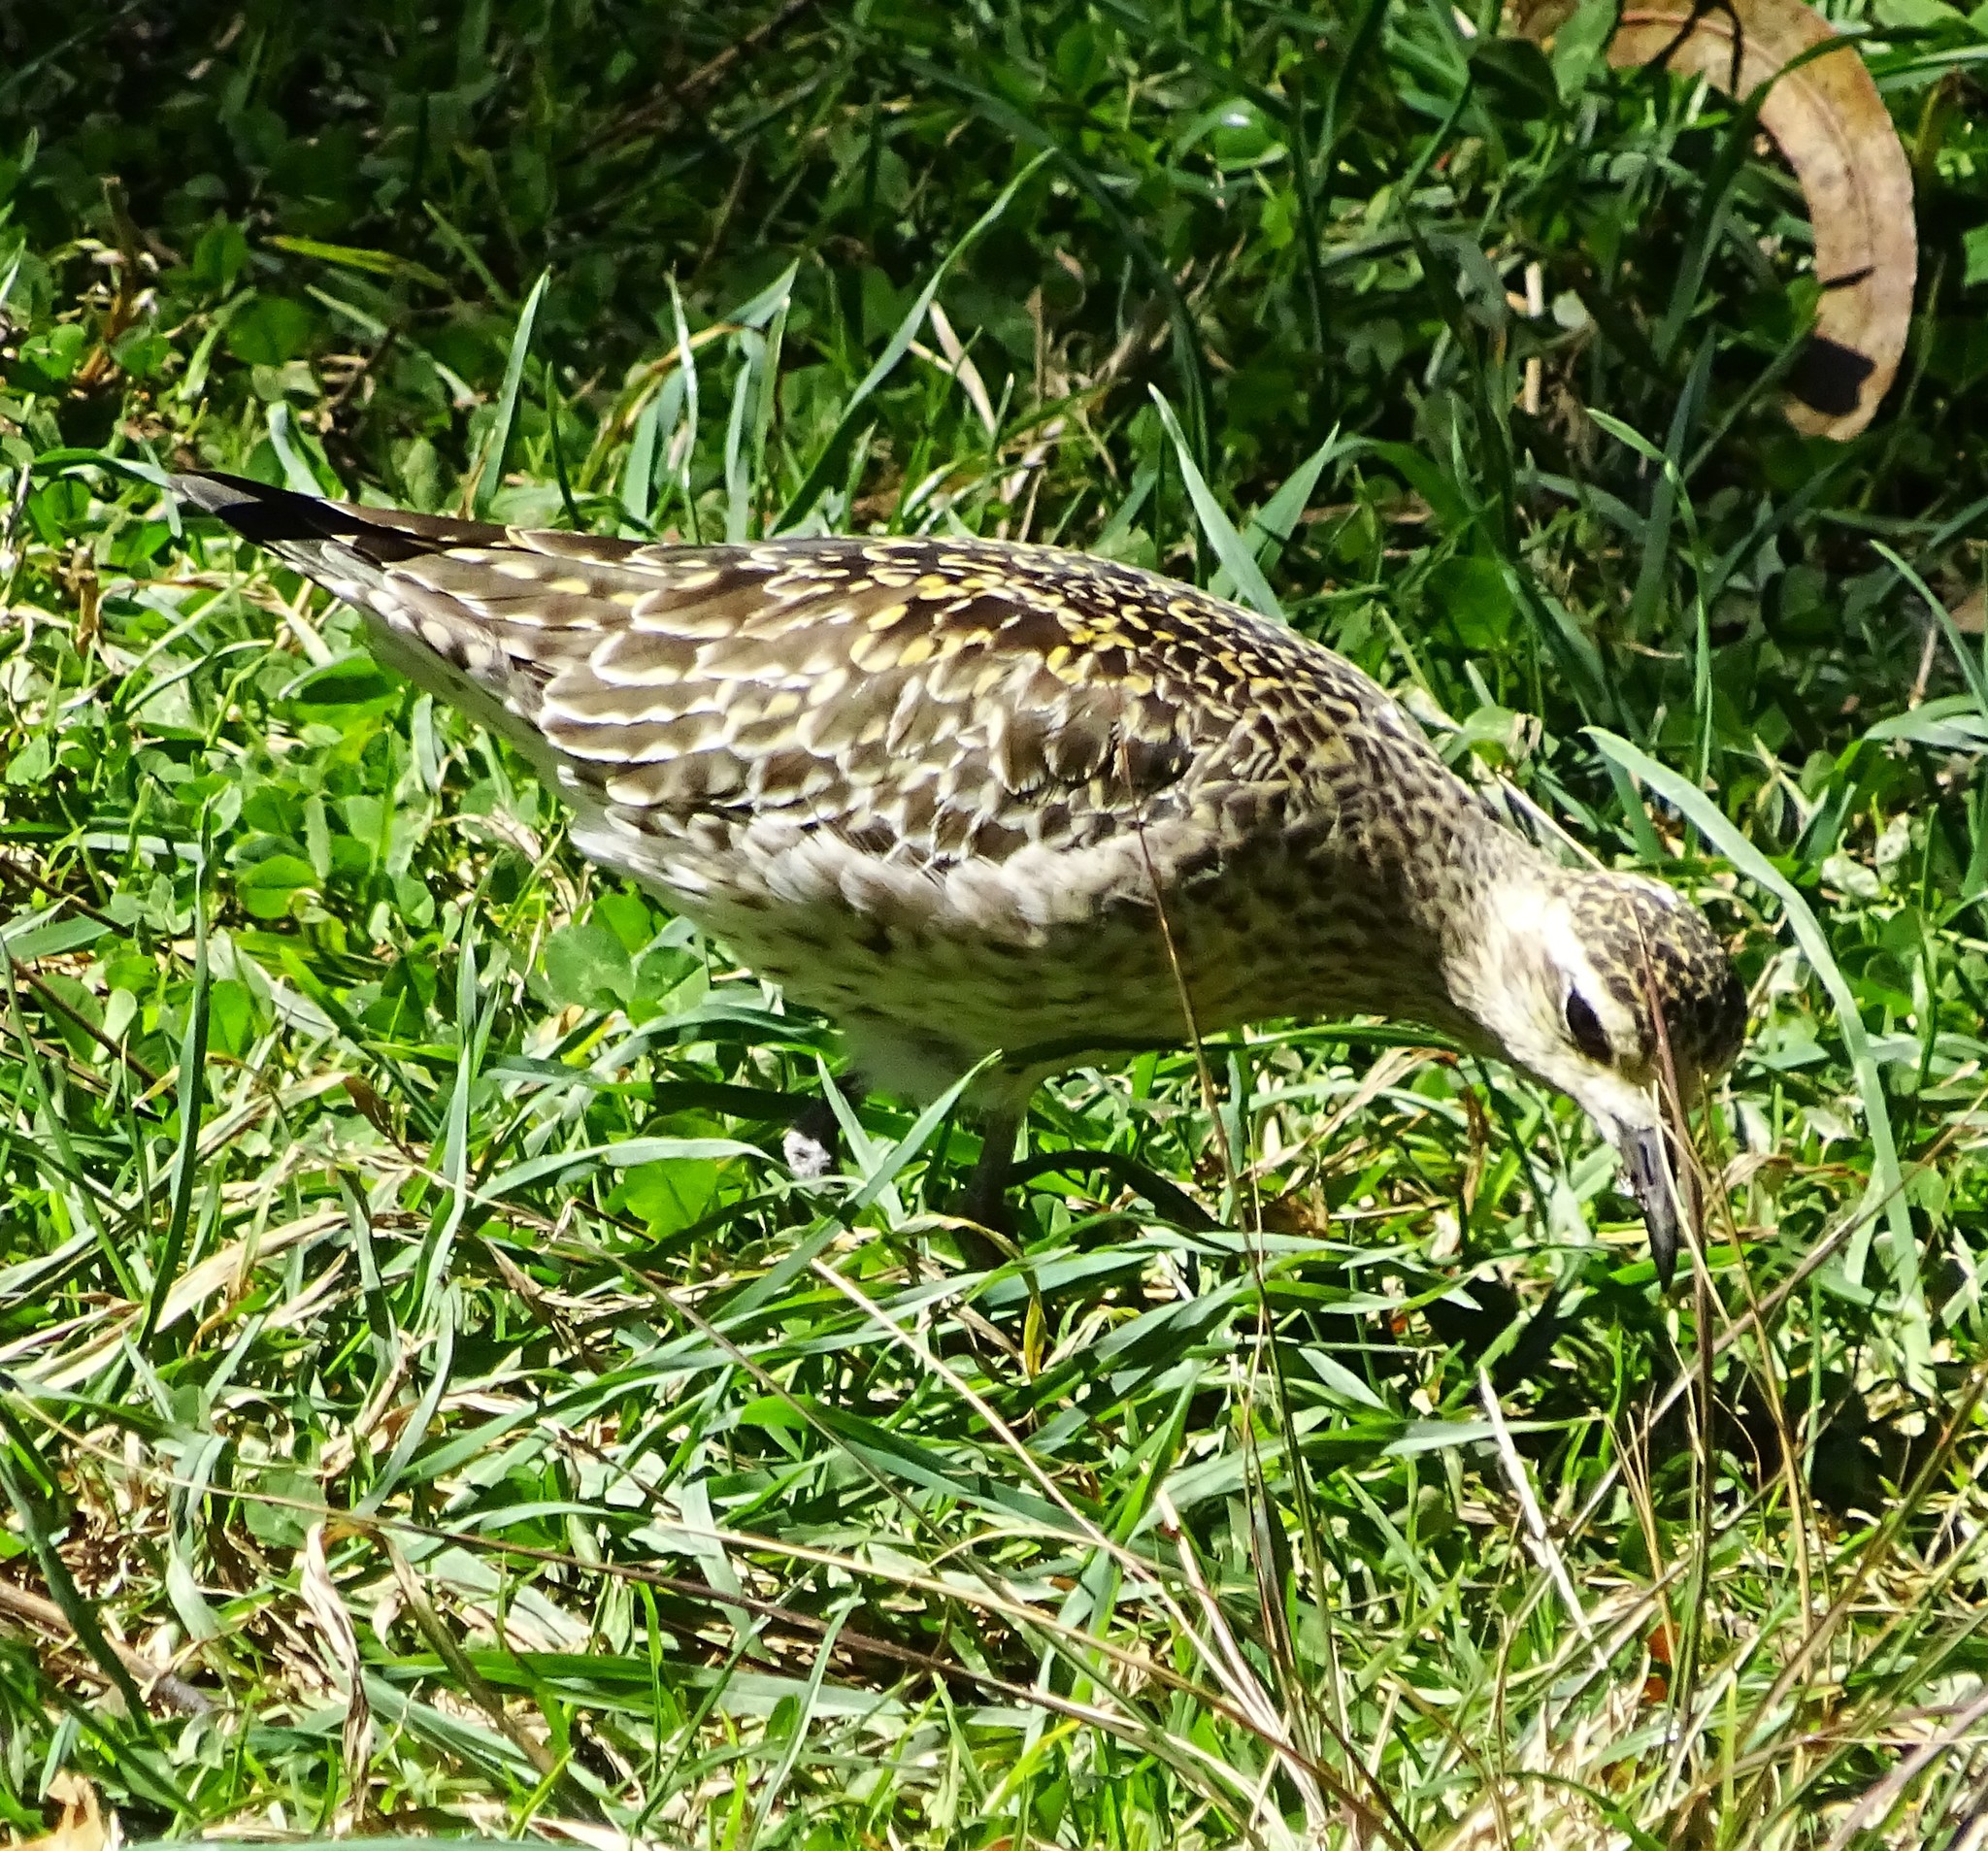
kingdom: Animalia
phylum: Chordata
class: Aves
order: Charadriiformes
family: Charadriidae
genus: Pluvialis
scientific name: Pluvialis fulva
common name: Pacific golden plover
